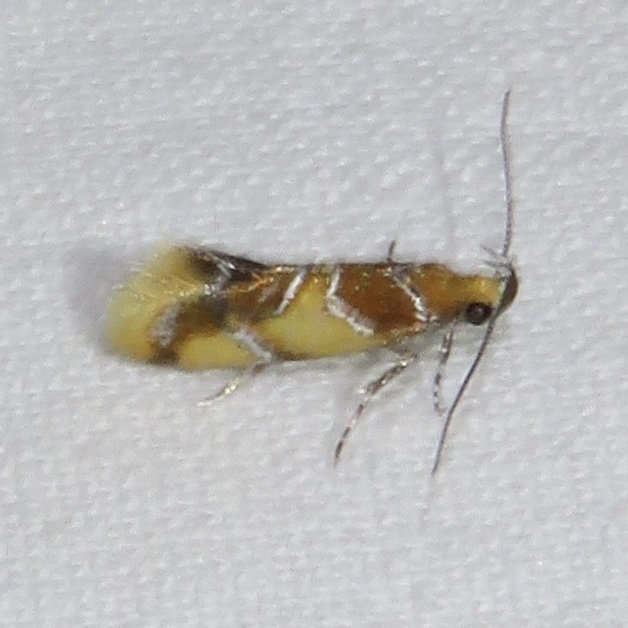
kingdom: Animalia
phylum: Arthropoda
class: Insecta
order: Lepidoptera
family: Oecophoridae
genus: Callima
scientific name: Callima argenticinctella
